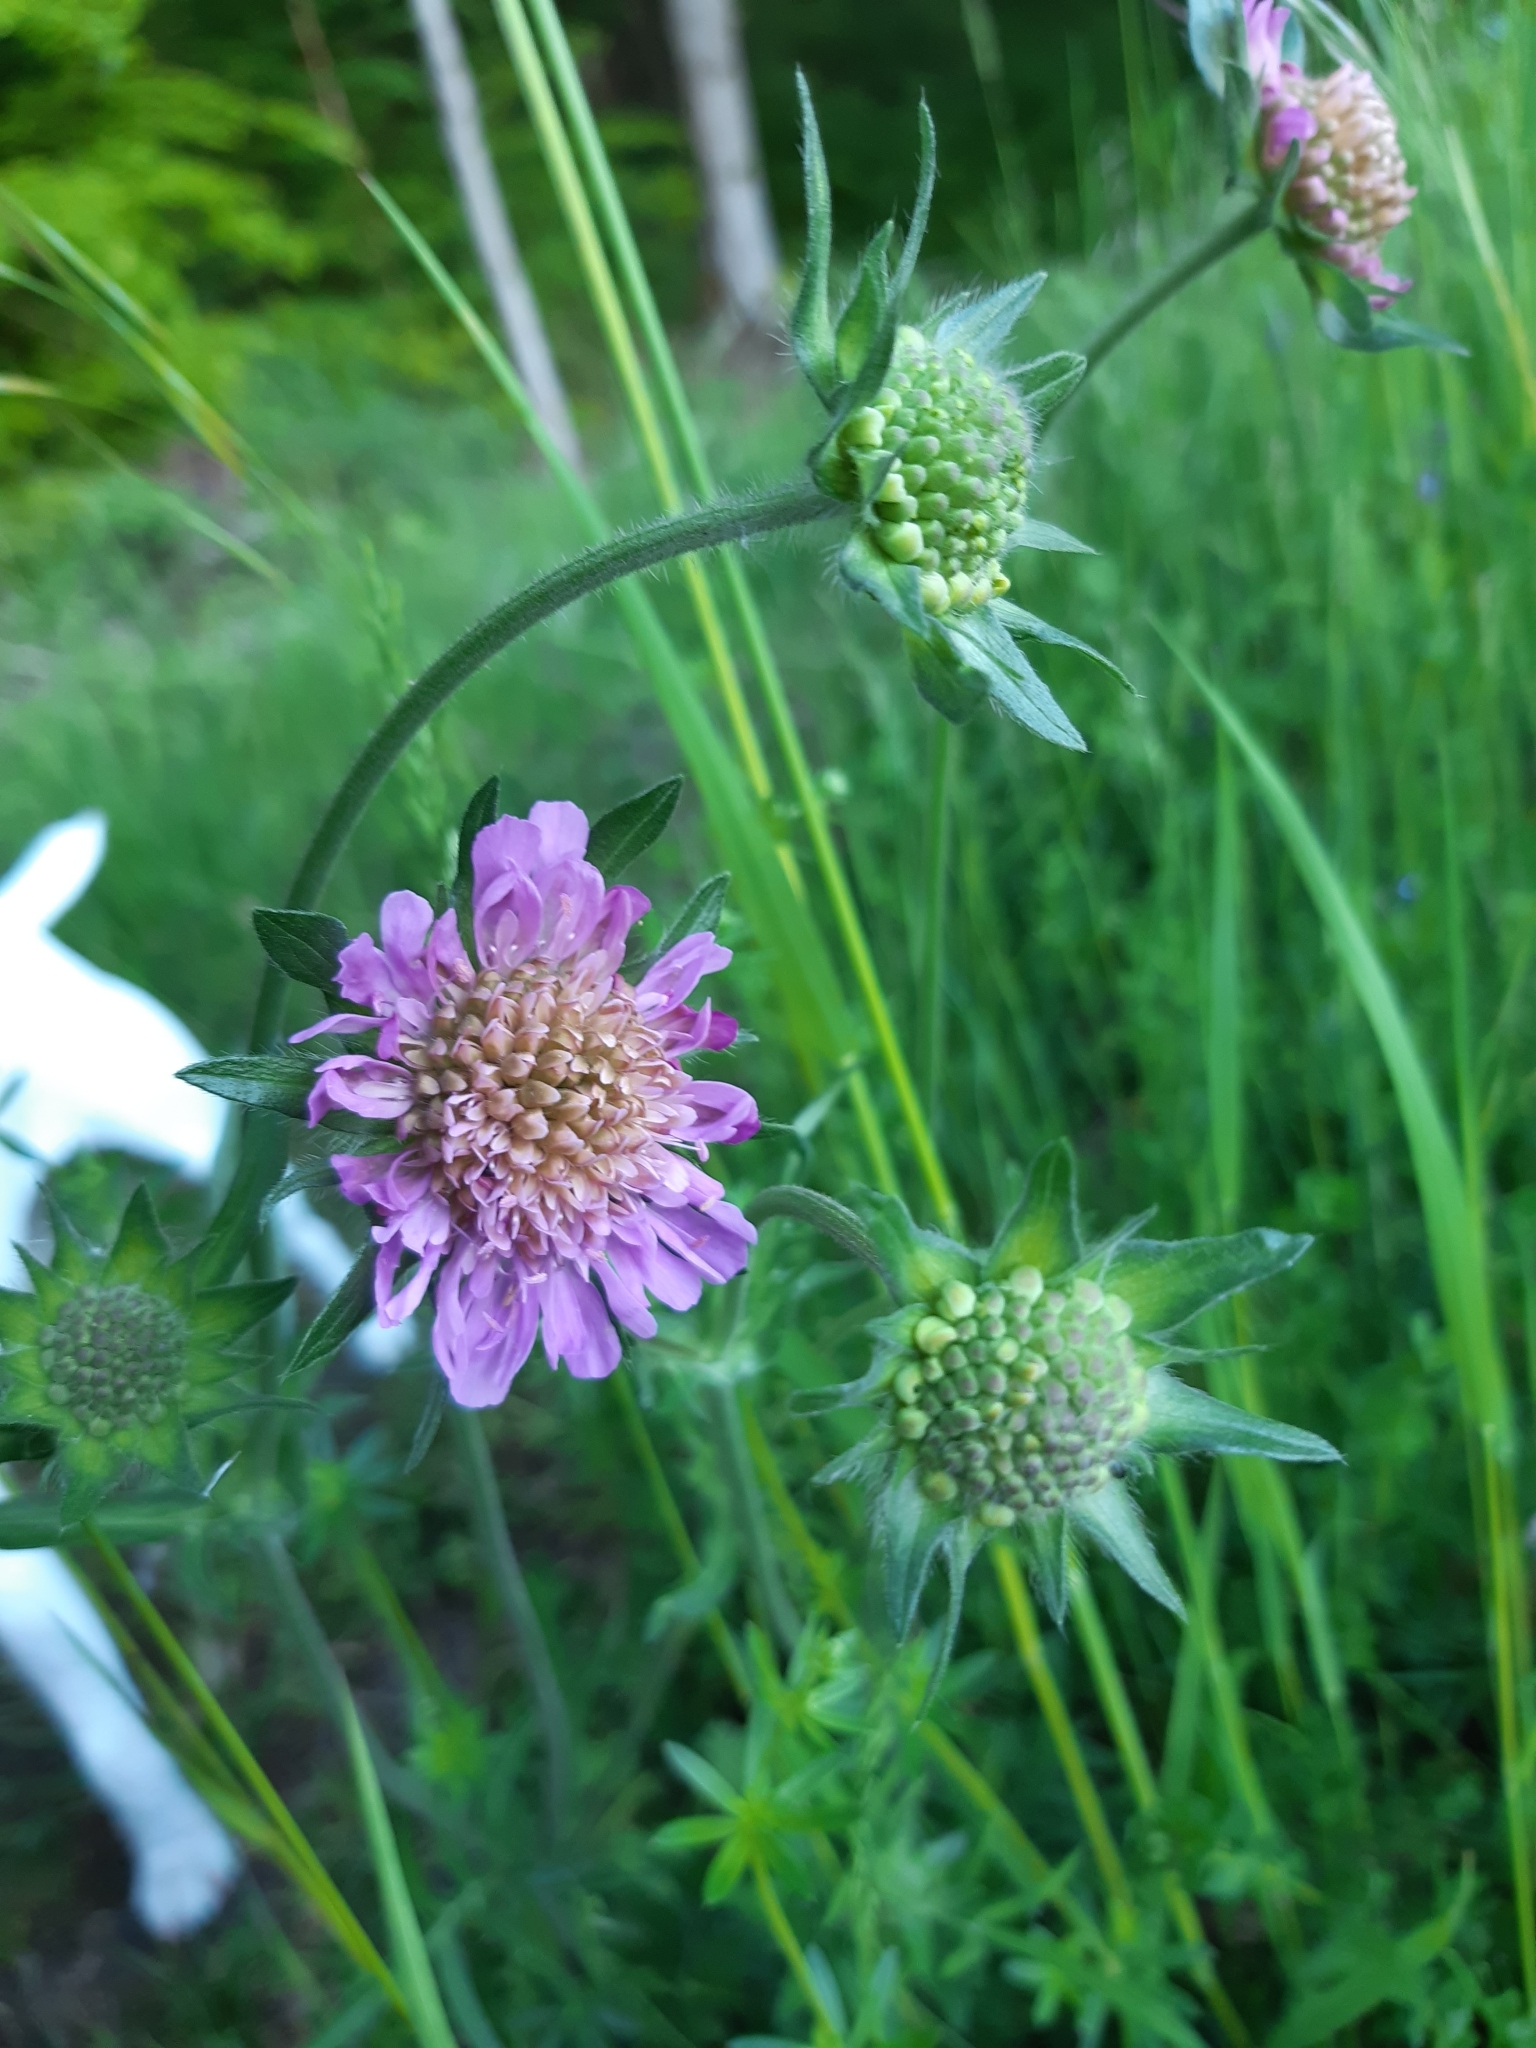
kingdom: Plantae
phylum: Tracheophyta
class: Magnoliopsida
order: Dipsacales
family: Caprifoliaceae
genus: Knautia
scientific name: Knautia arvensis
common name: Field scabiosa
